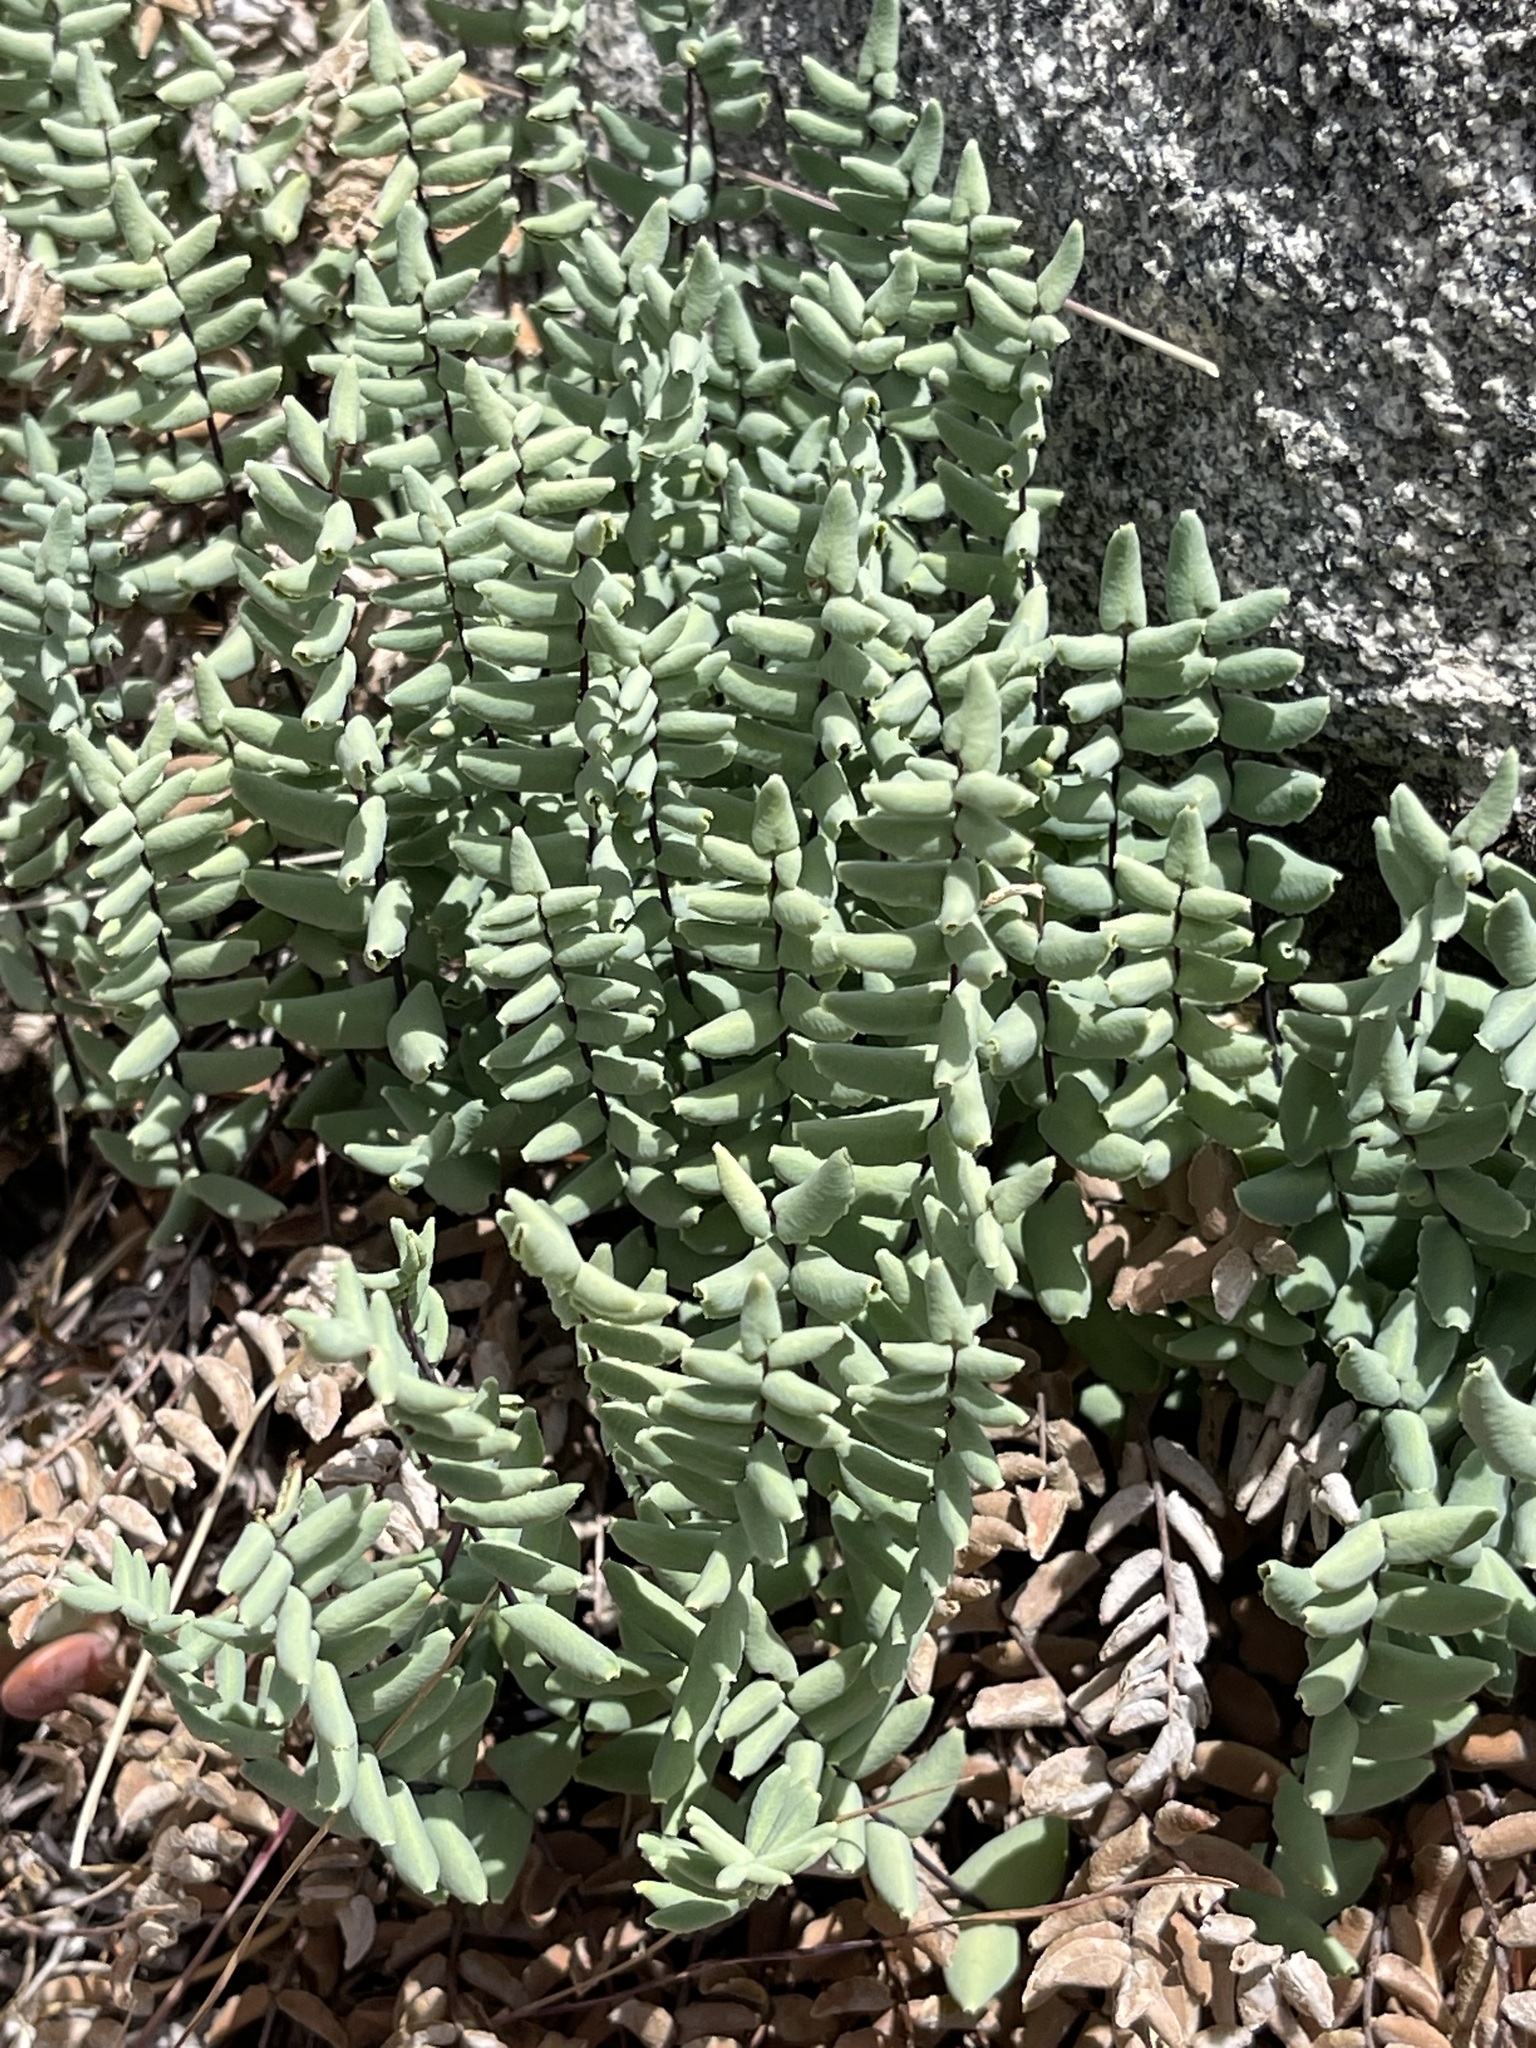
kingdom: Plantae
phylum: Tracheophyta
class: Polypodiopsida
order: Polypodiales
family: Pteridaceae
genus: Pellaea
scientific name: Pellaea bridgesii
